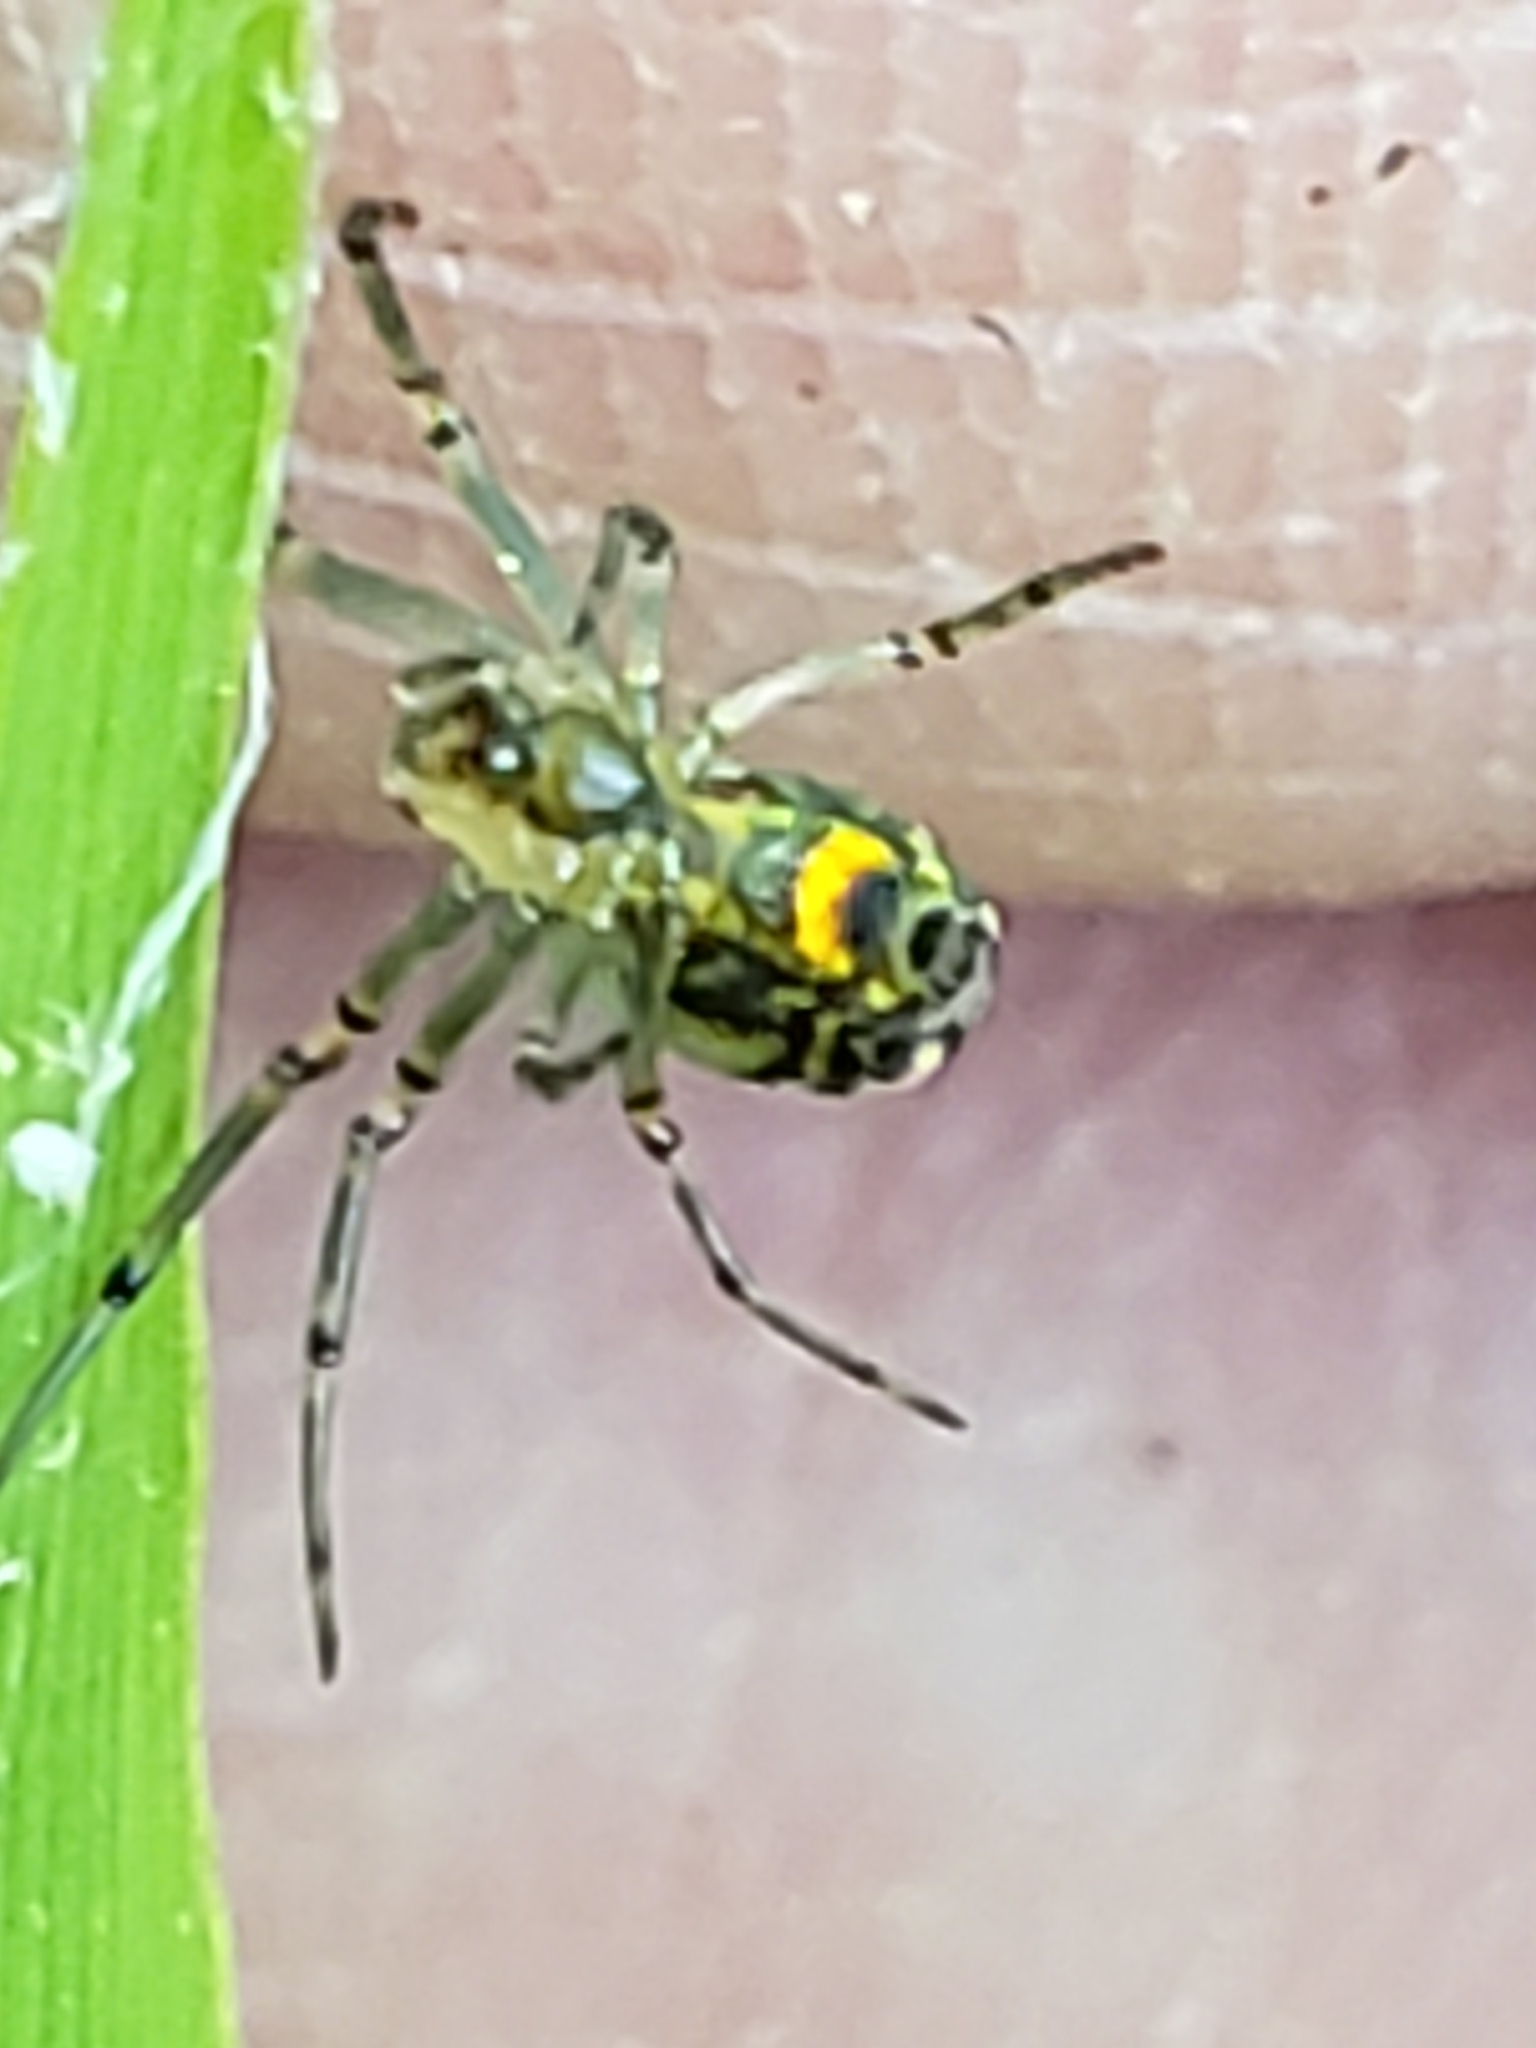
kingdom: Animalia
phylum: Arthropoda
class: Arachnida
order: Araneae
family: Tetragnathidae
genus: Leucauge
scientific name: Leucauge venusta
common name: Longjawed orb weavers
